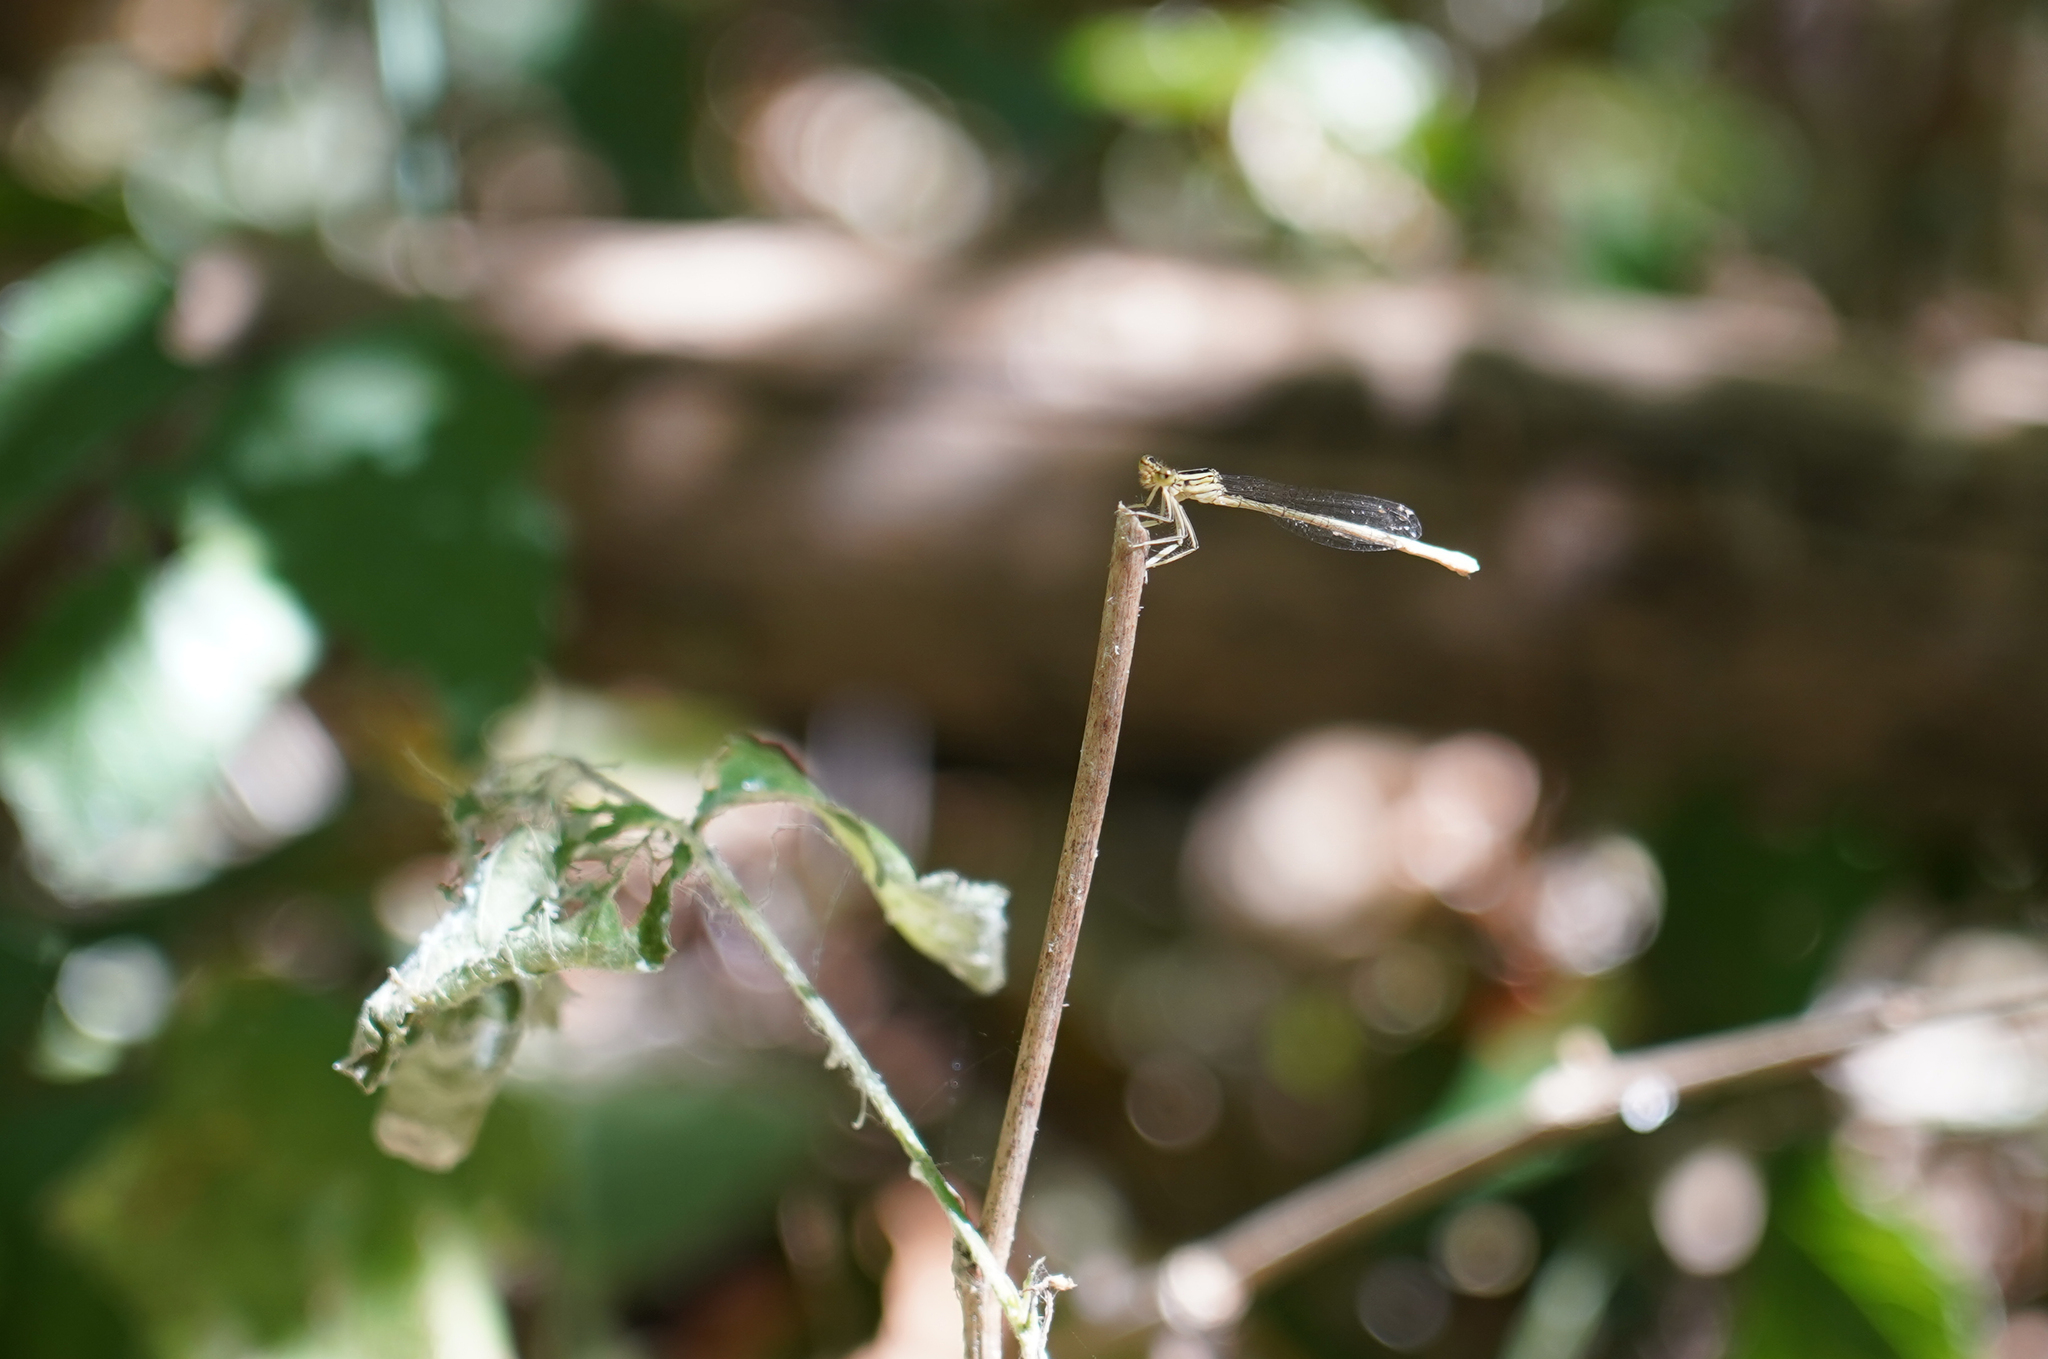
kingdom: Animalia
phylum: Arthropoda
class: Insecta
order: Odonata
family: Platycnemididae
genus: Platycnemis
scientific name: Platycnemis pennipes
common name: White-legged damselfly
